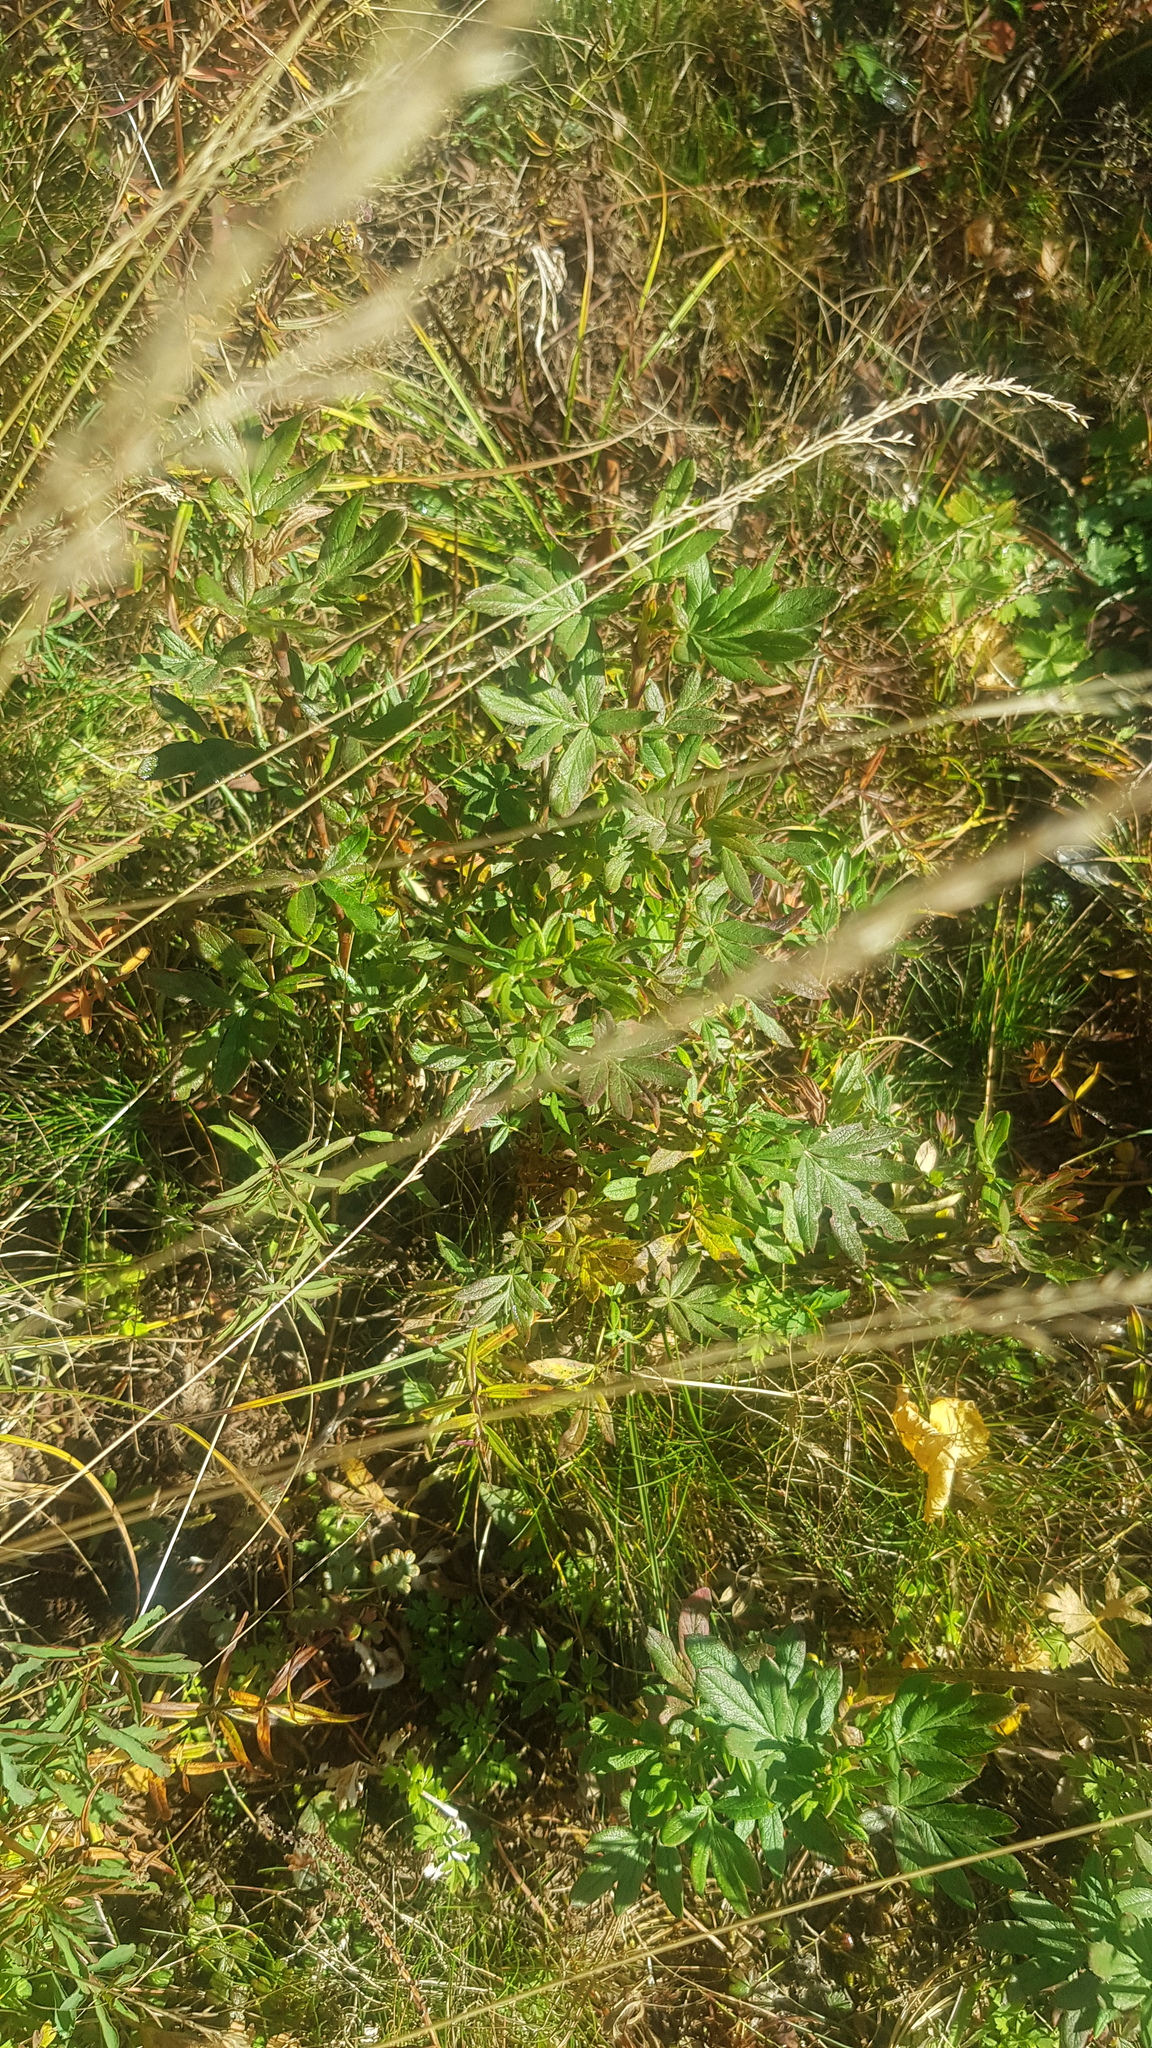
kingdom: Plantae
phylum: Tracheophyta
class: Magnoliopsida
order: Rosales
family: Rosaceae
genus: Dasiphora
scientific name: Dasiphora fruticosa
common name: Shrubby cinquefoil
